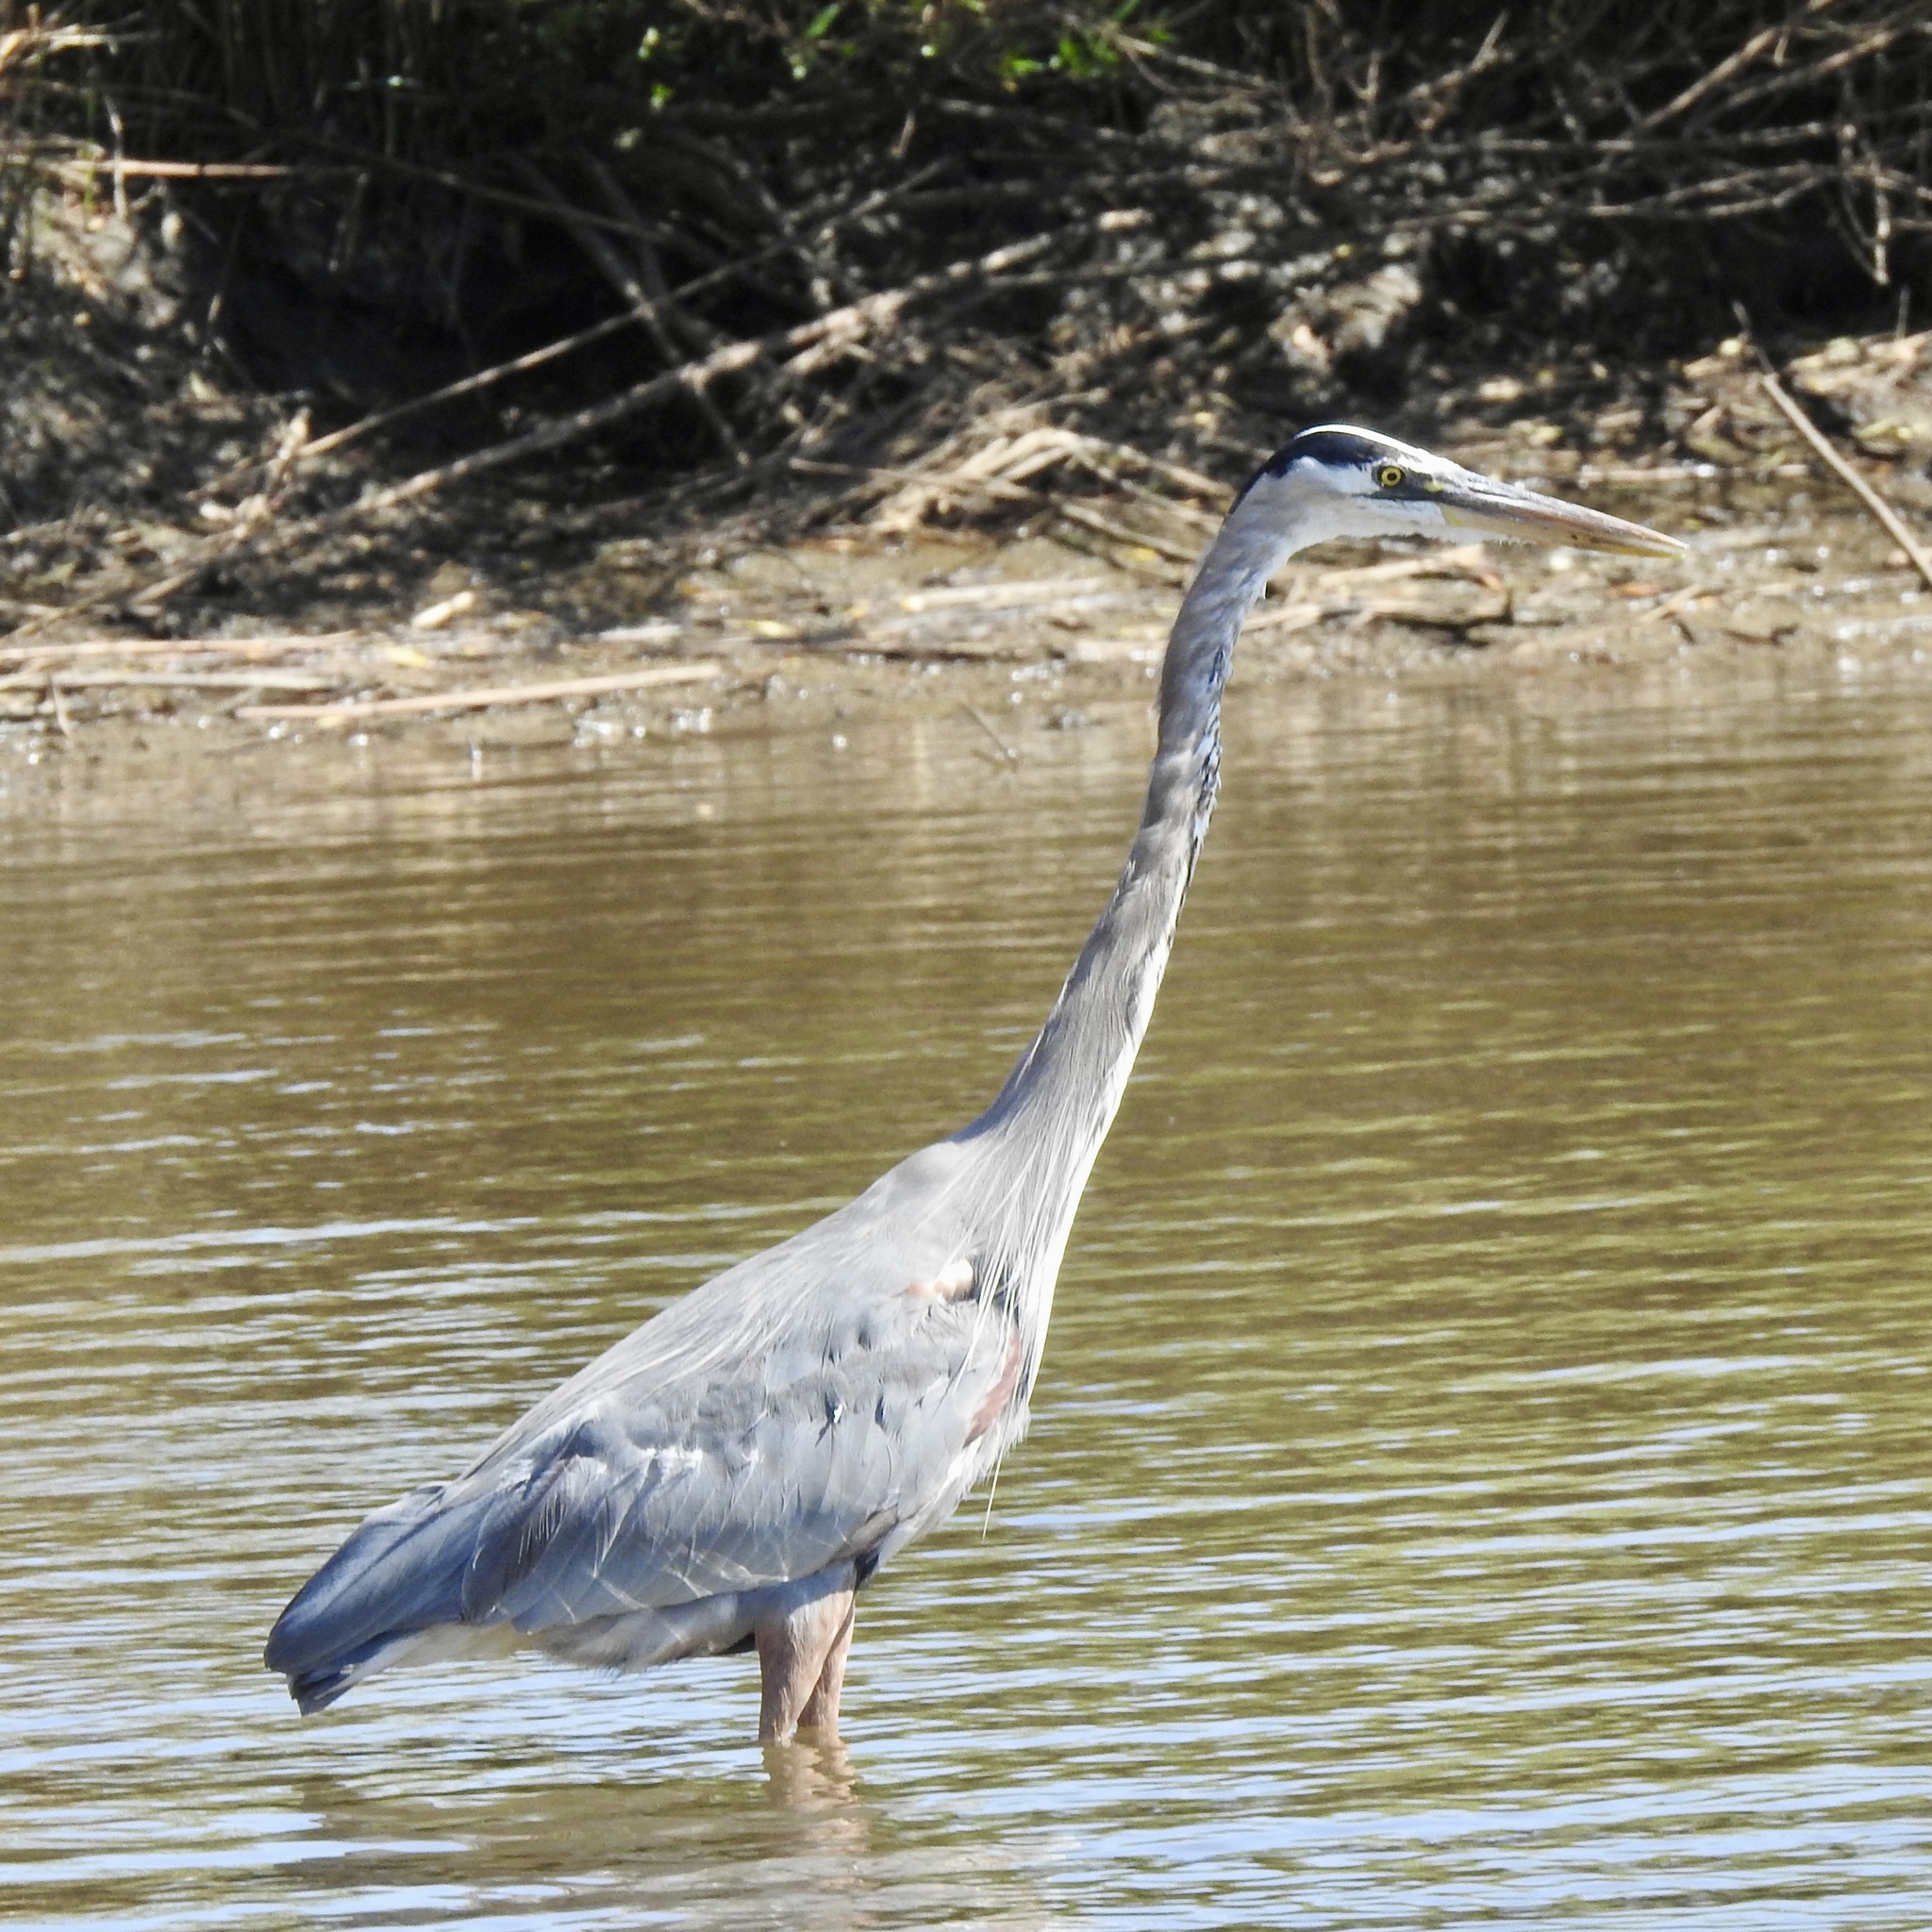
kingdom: Animalia
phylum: Chordata
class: Aves
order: Pelecaniformes
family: Ardeidae
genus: Ardea
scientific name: Ardea herodias
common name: Great blue heron
